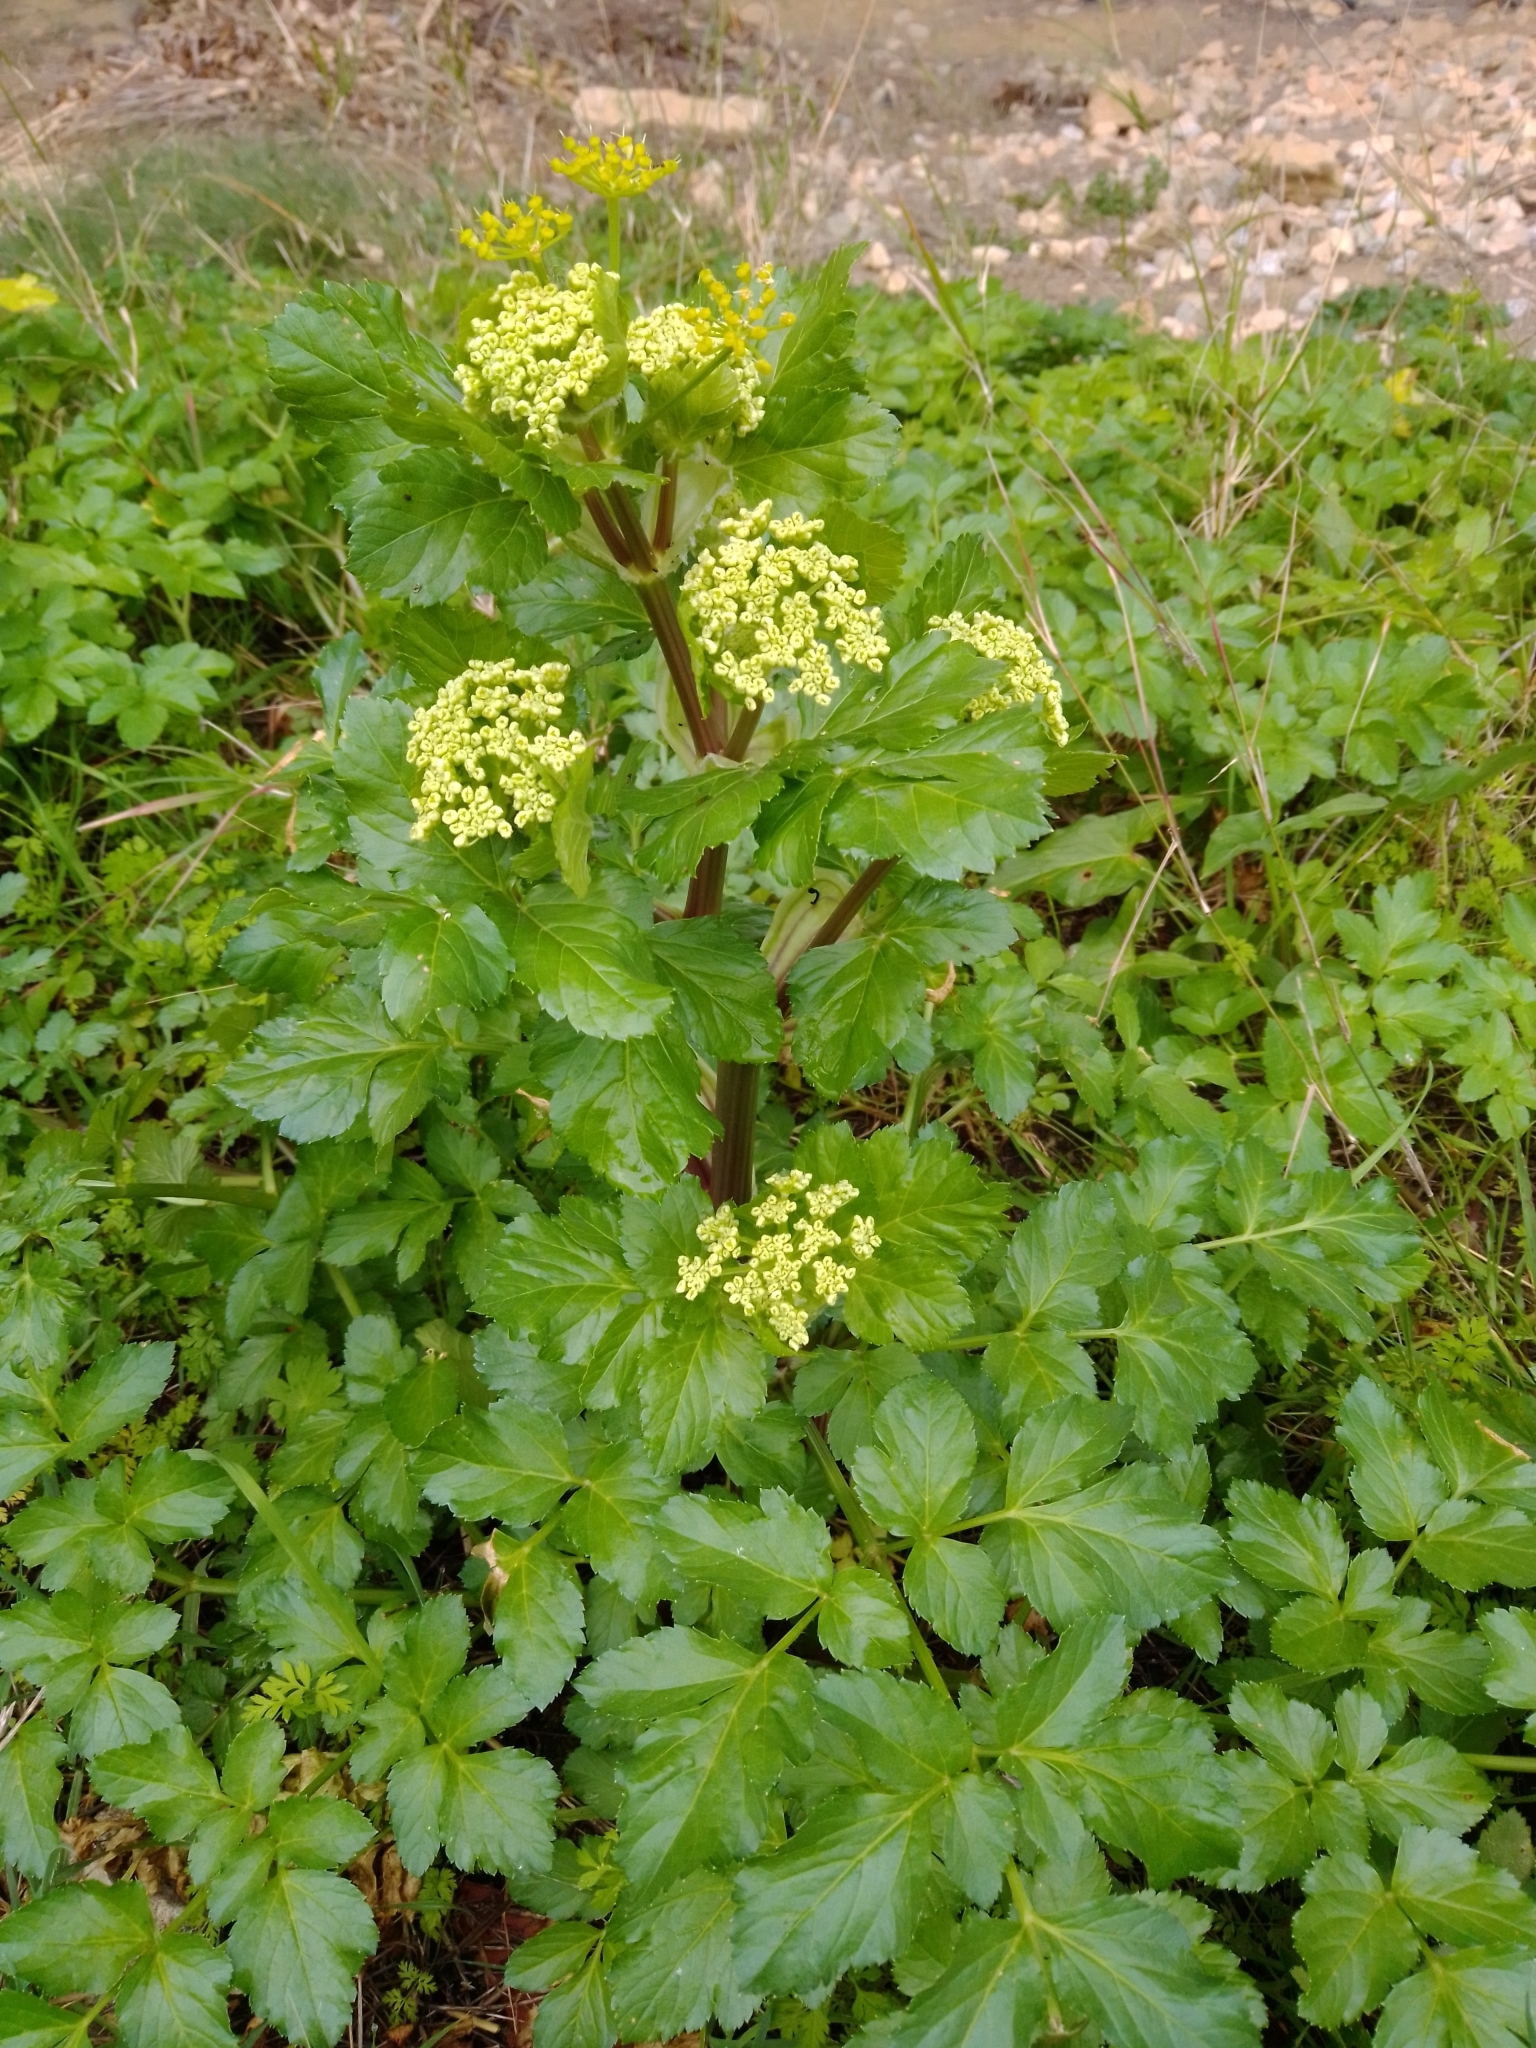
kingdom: Plantae
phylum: Tracheophyta
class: Magnoliopsida
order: Apiales
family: Apiaceae
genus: Smyrnium
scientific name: Smyrnium olusatrum
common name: Alexanders
